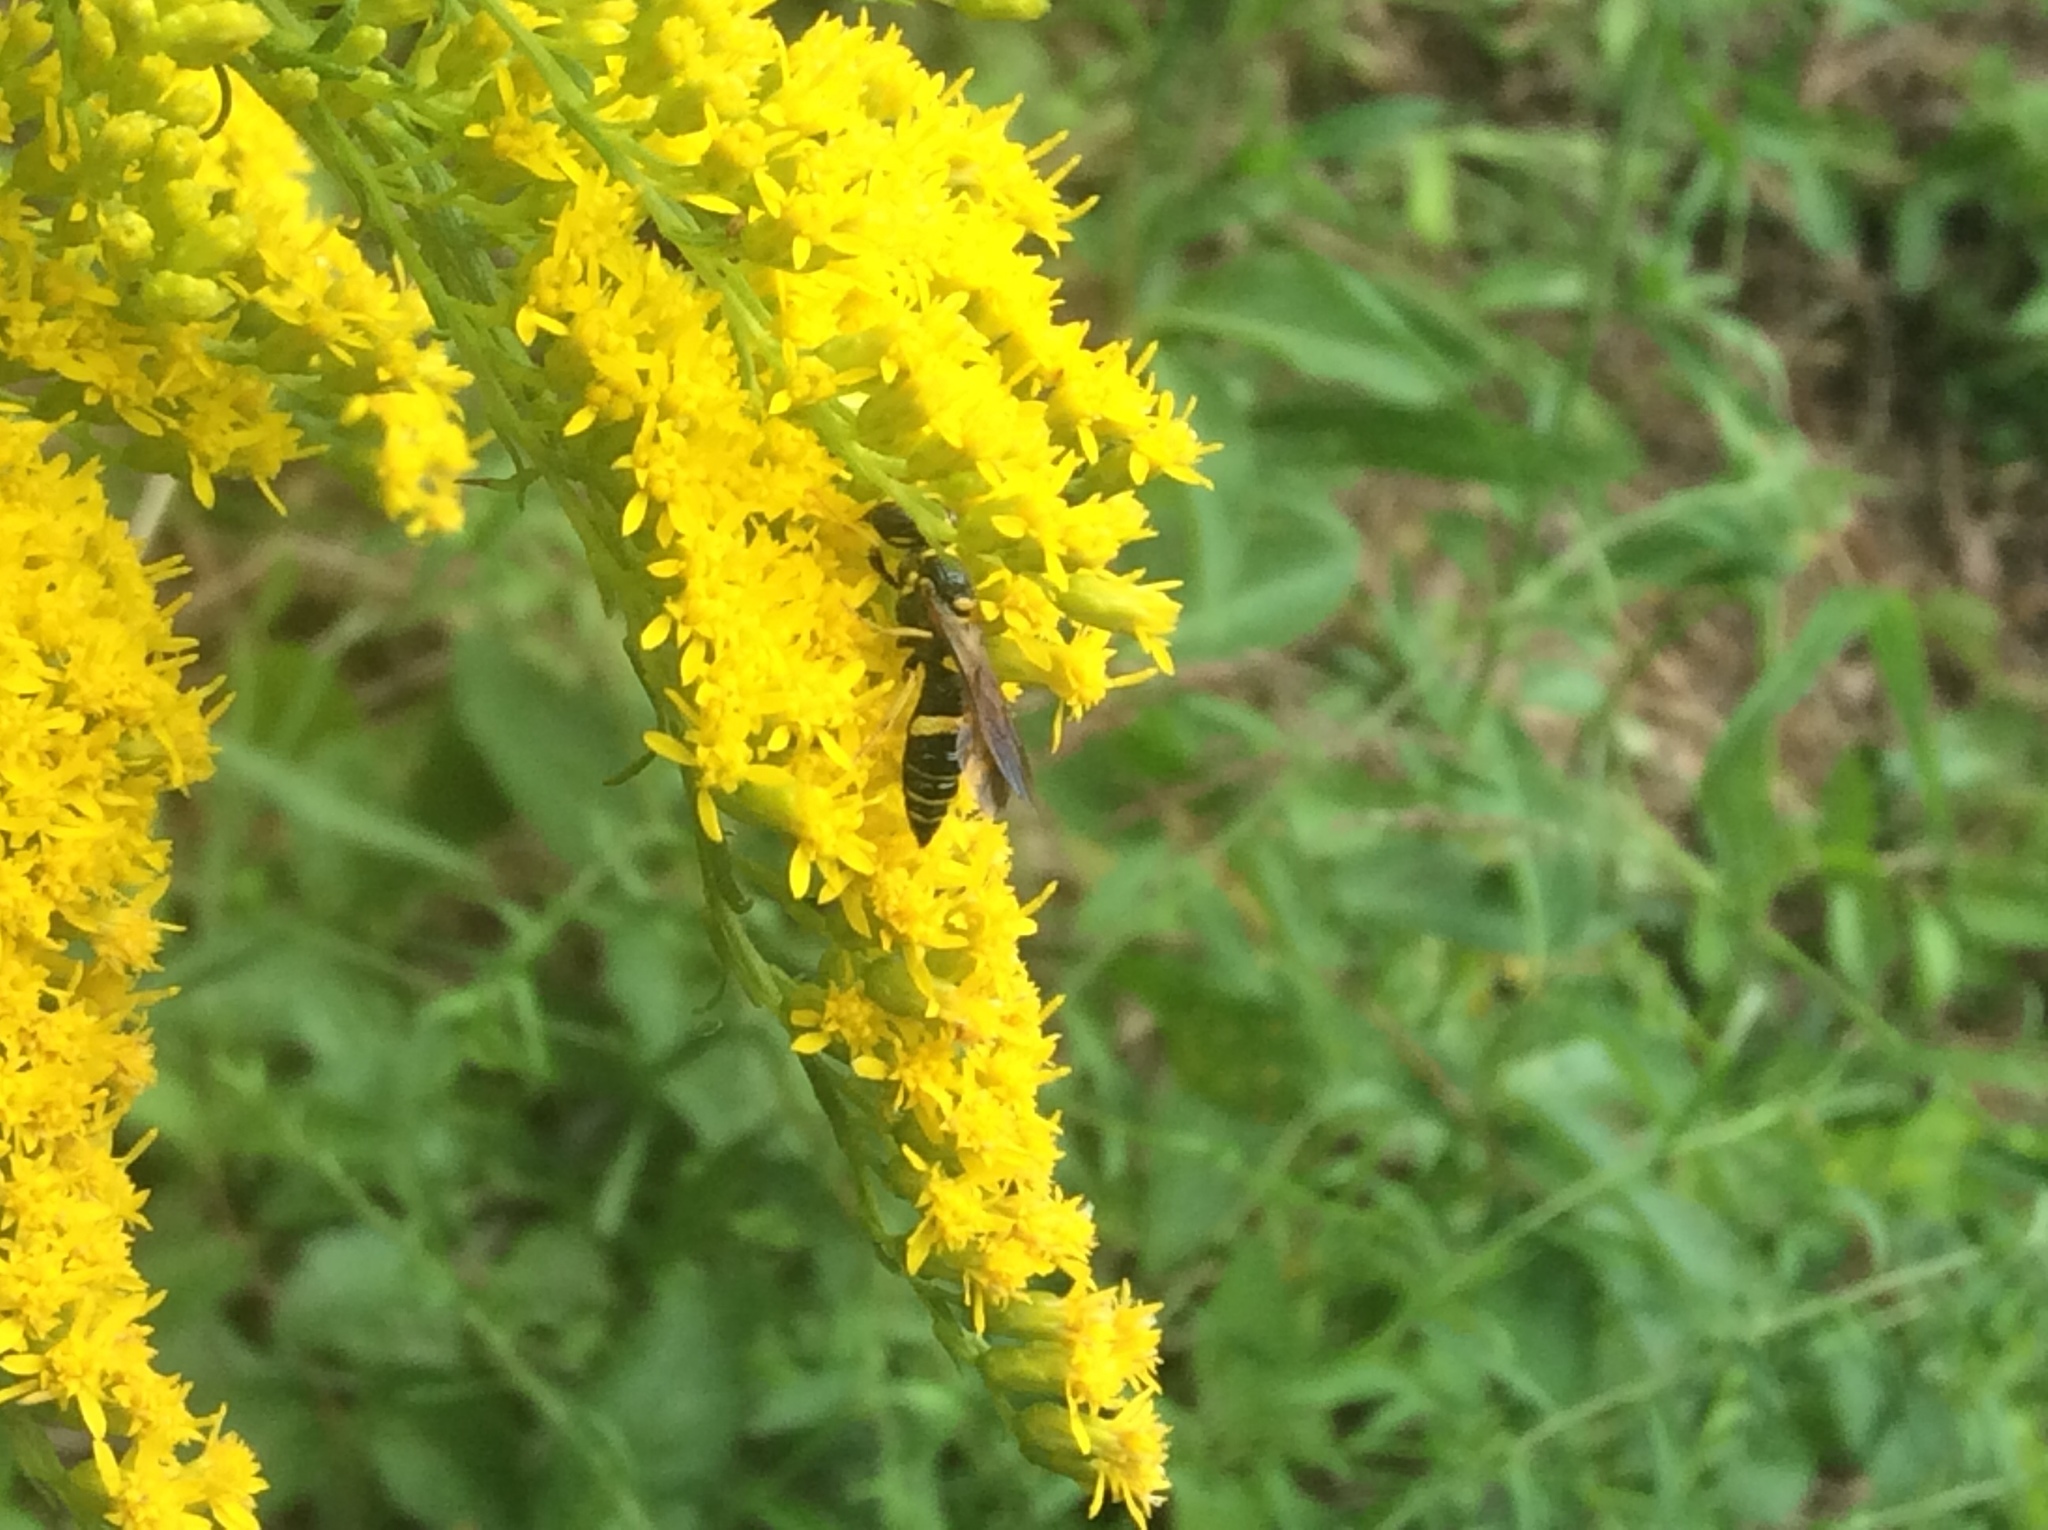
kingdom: Animalia
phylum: Arthropoda
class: Insecta
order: Hymenoptera
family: Crabronidae
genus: Philanthus
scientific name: Philanthus gibbosus
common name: Humped beewolf
